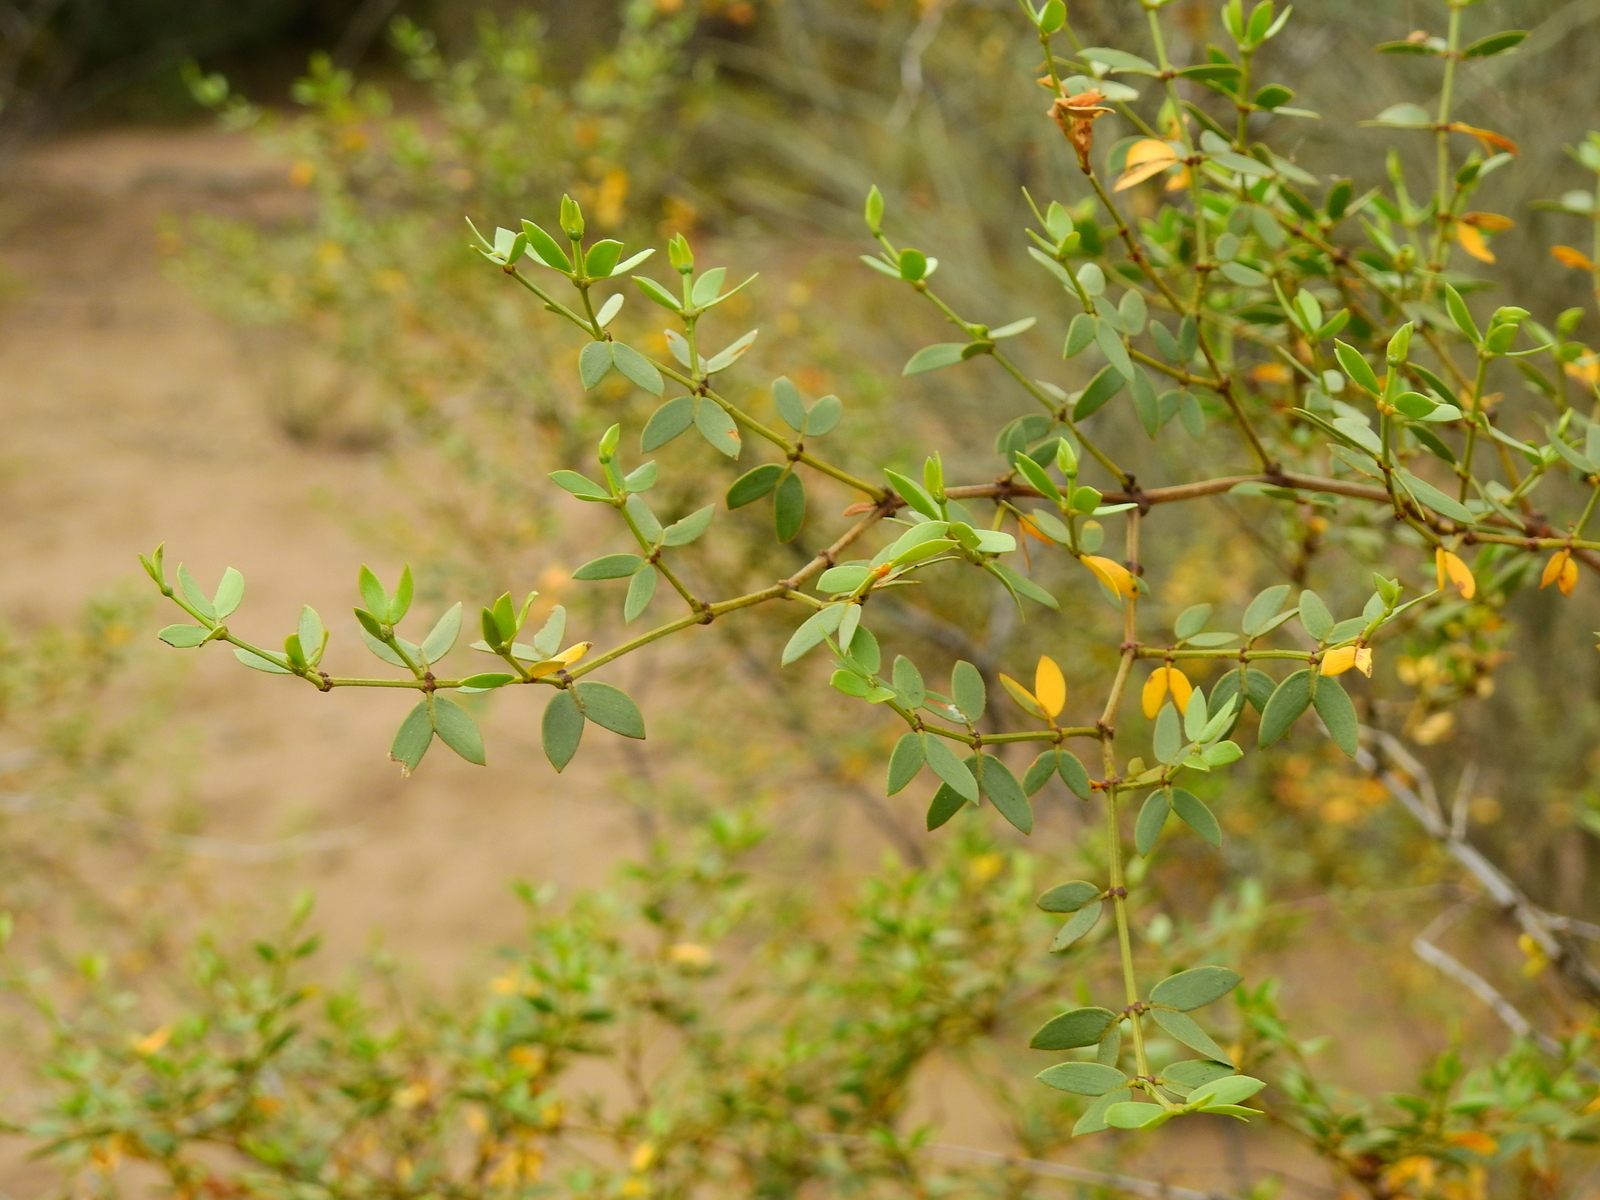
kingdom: Plantae
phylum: Tracheophyta
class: Magnoliopsida
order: Zygophyllales
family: Zygophyllaceae
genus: Larrea
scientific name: Larrea divaricata
